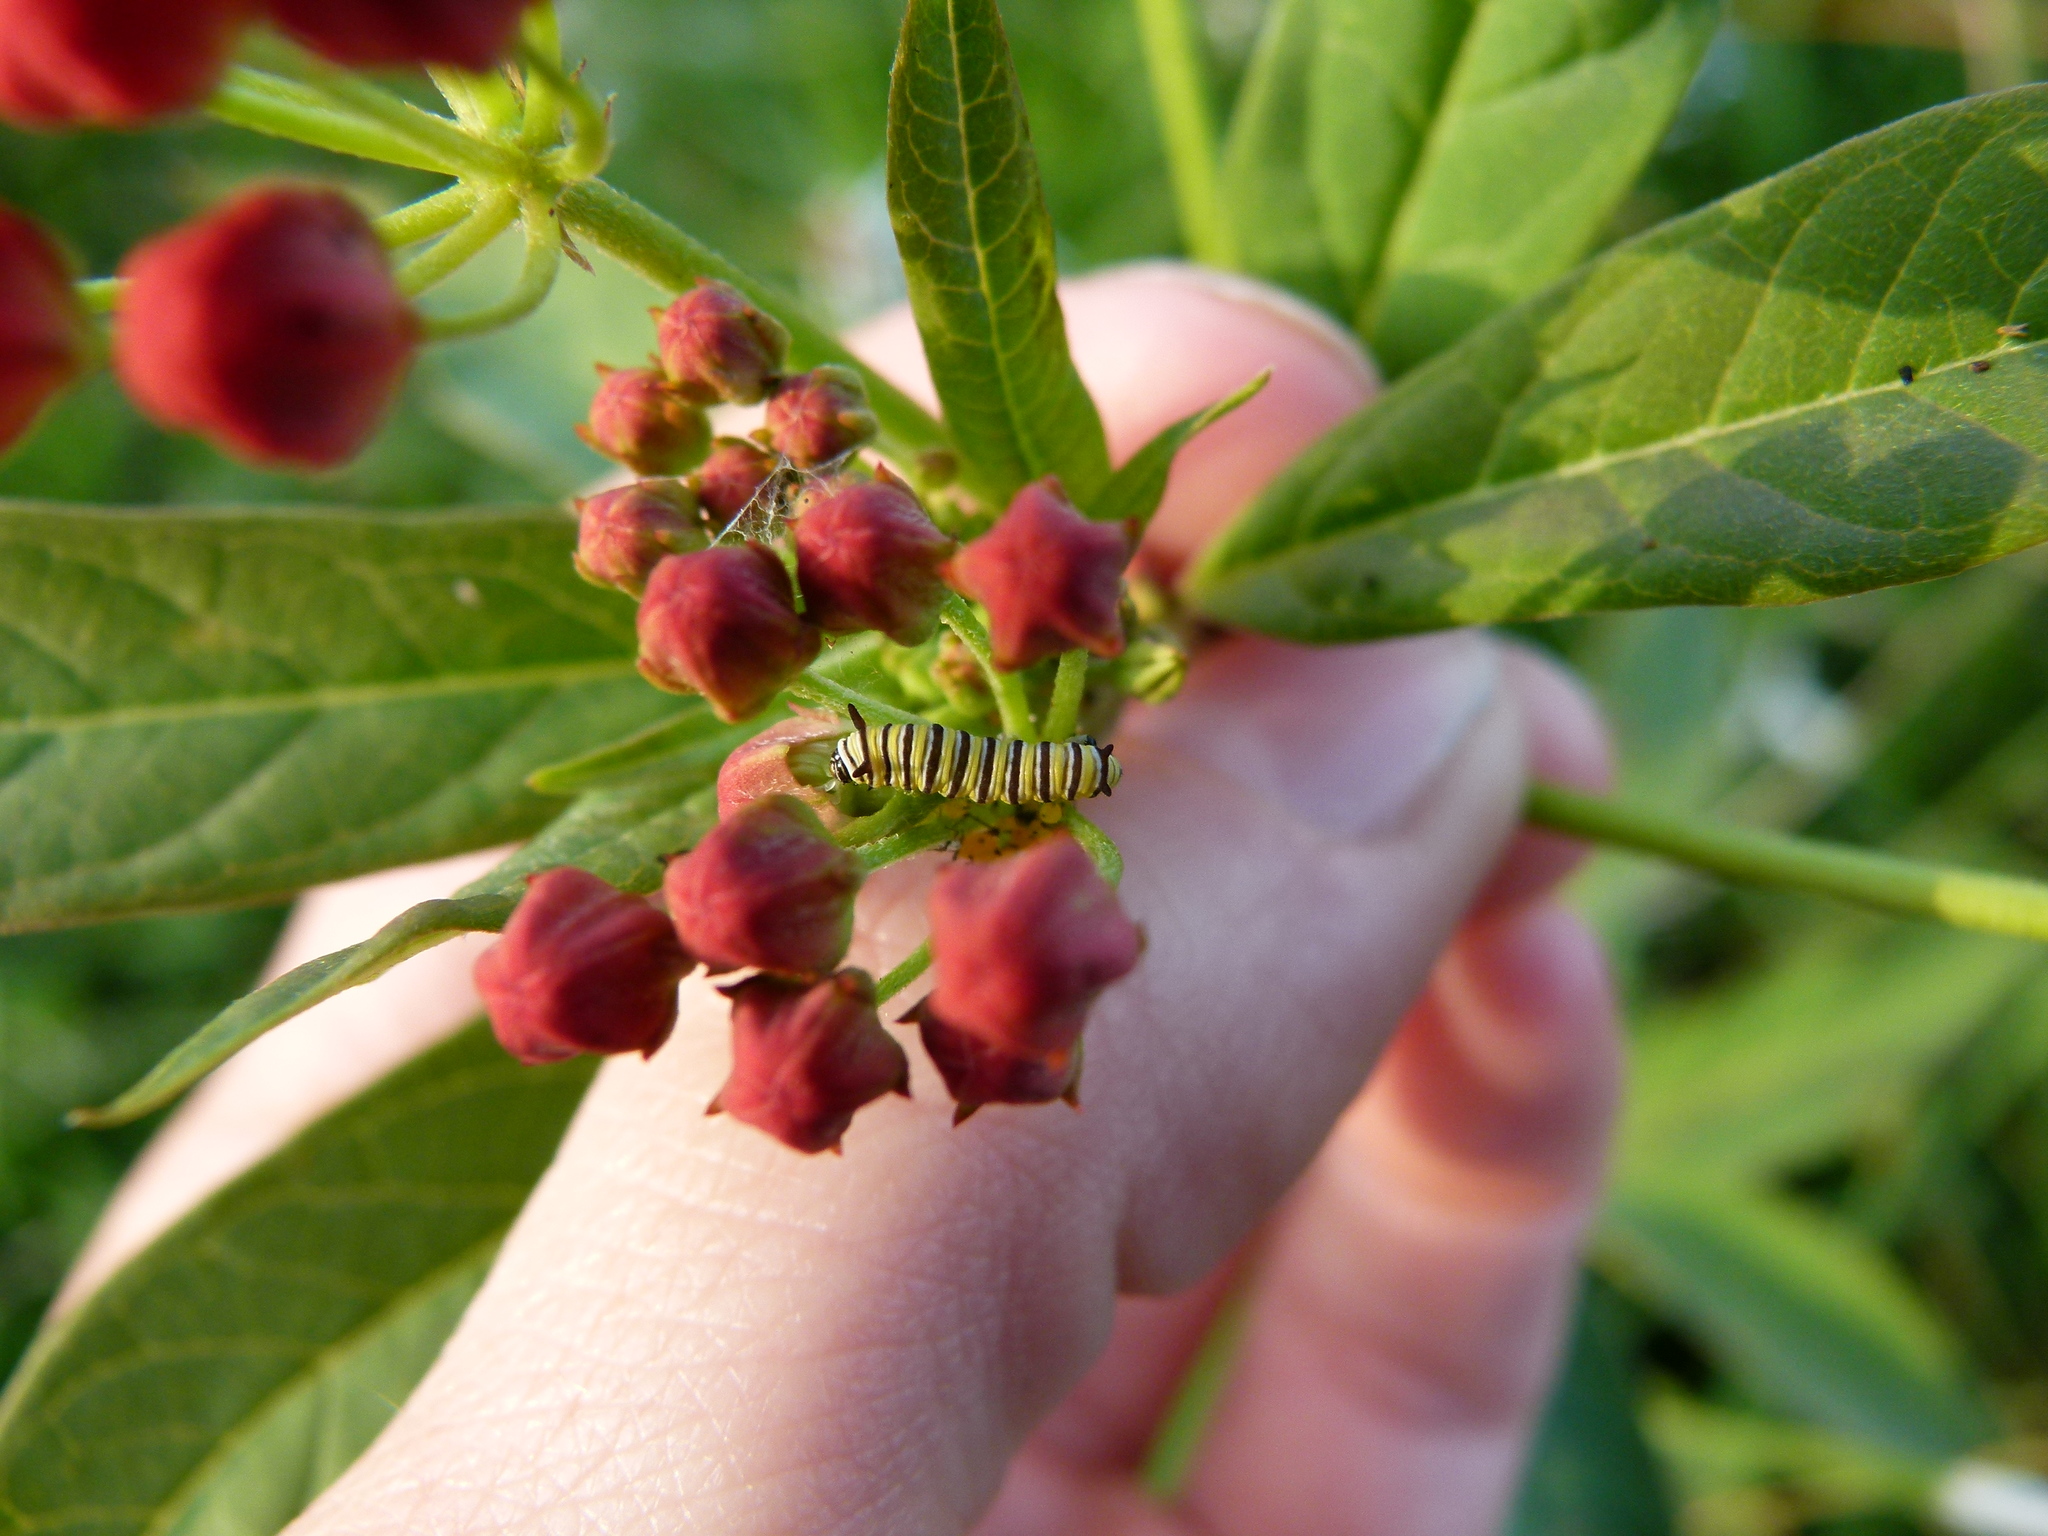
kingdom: Animalia
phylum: Arthropoda
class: Insecta
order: Lepidoptera
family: Nymphalidae
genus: Danaus
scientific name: Danaus plexippus
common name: Monarch
